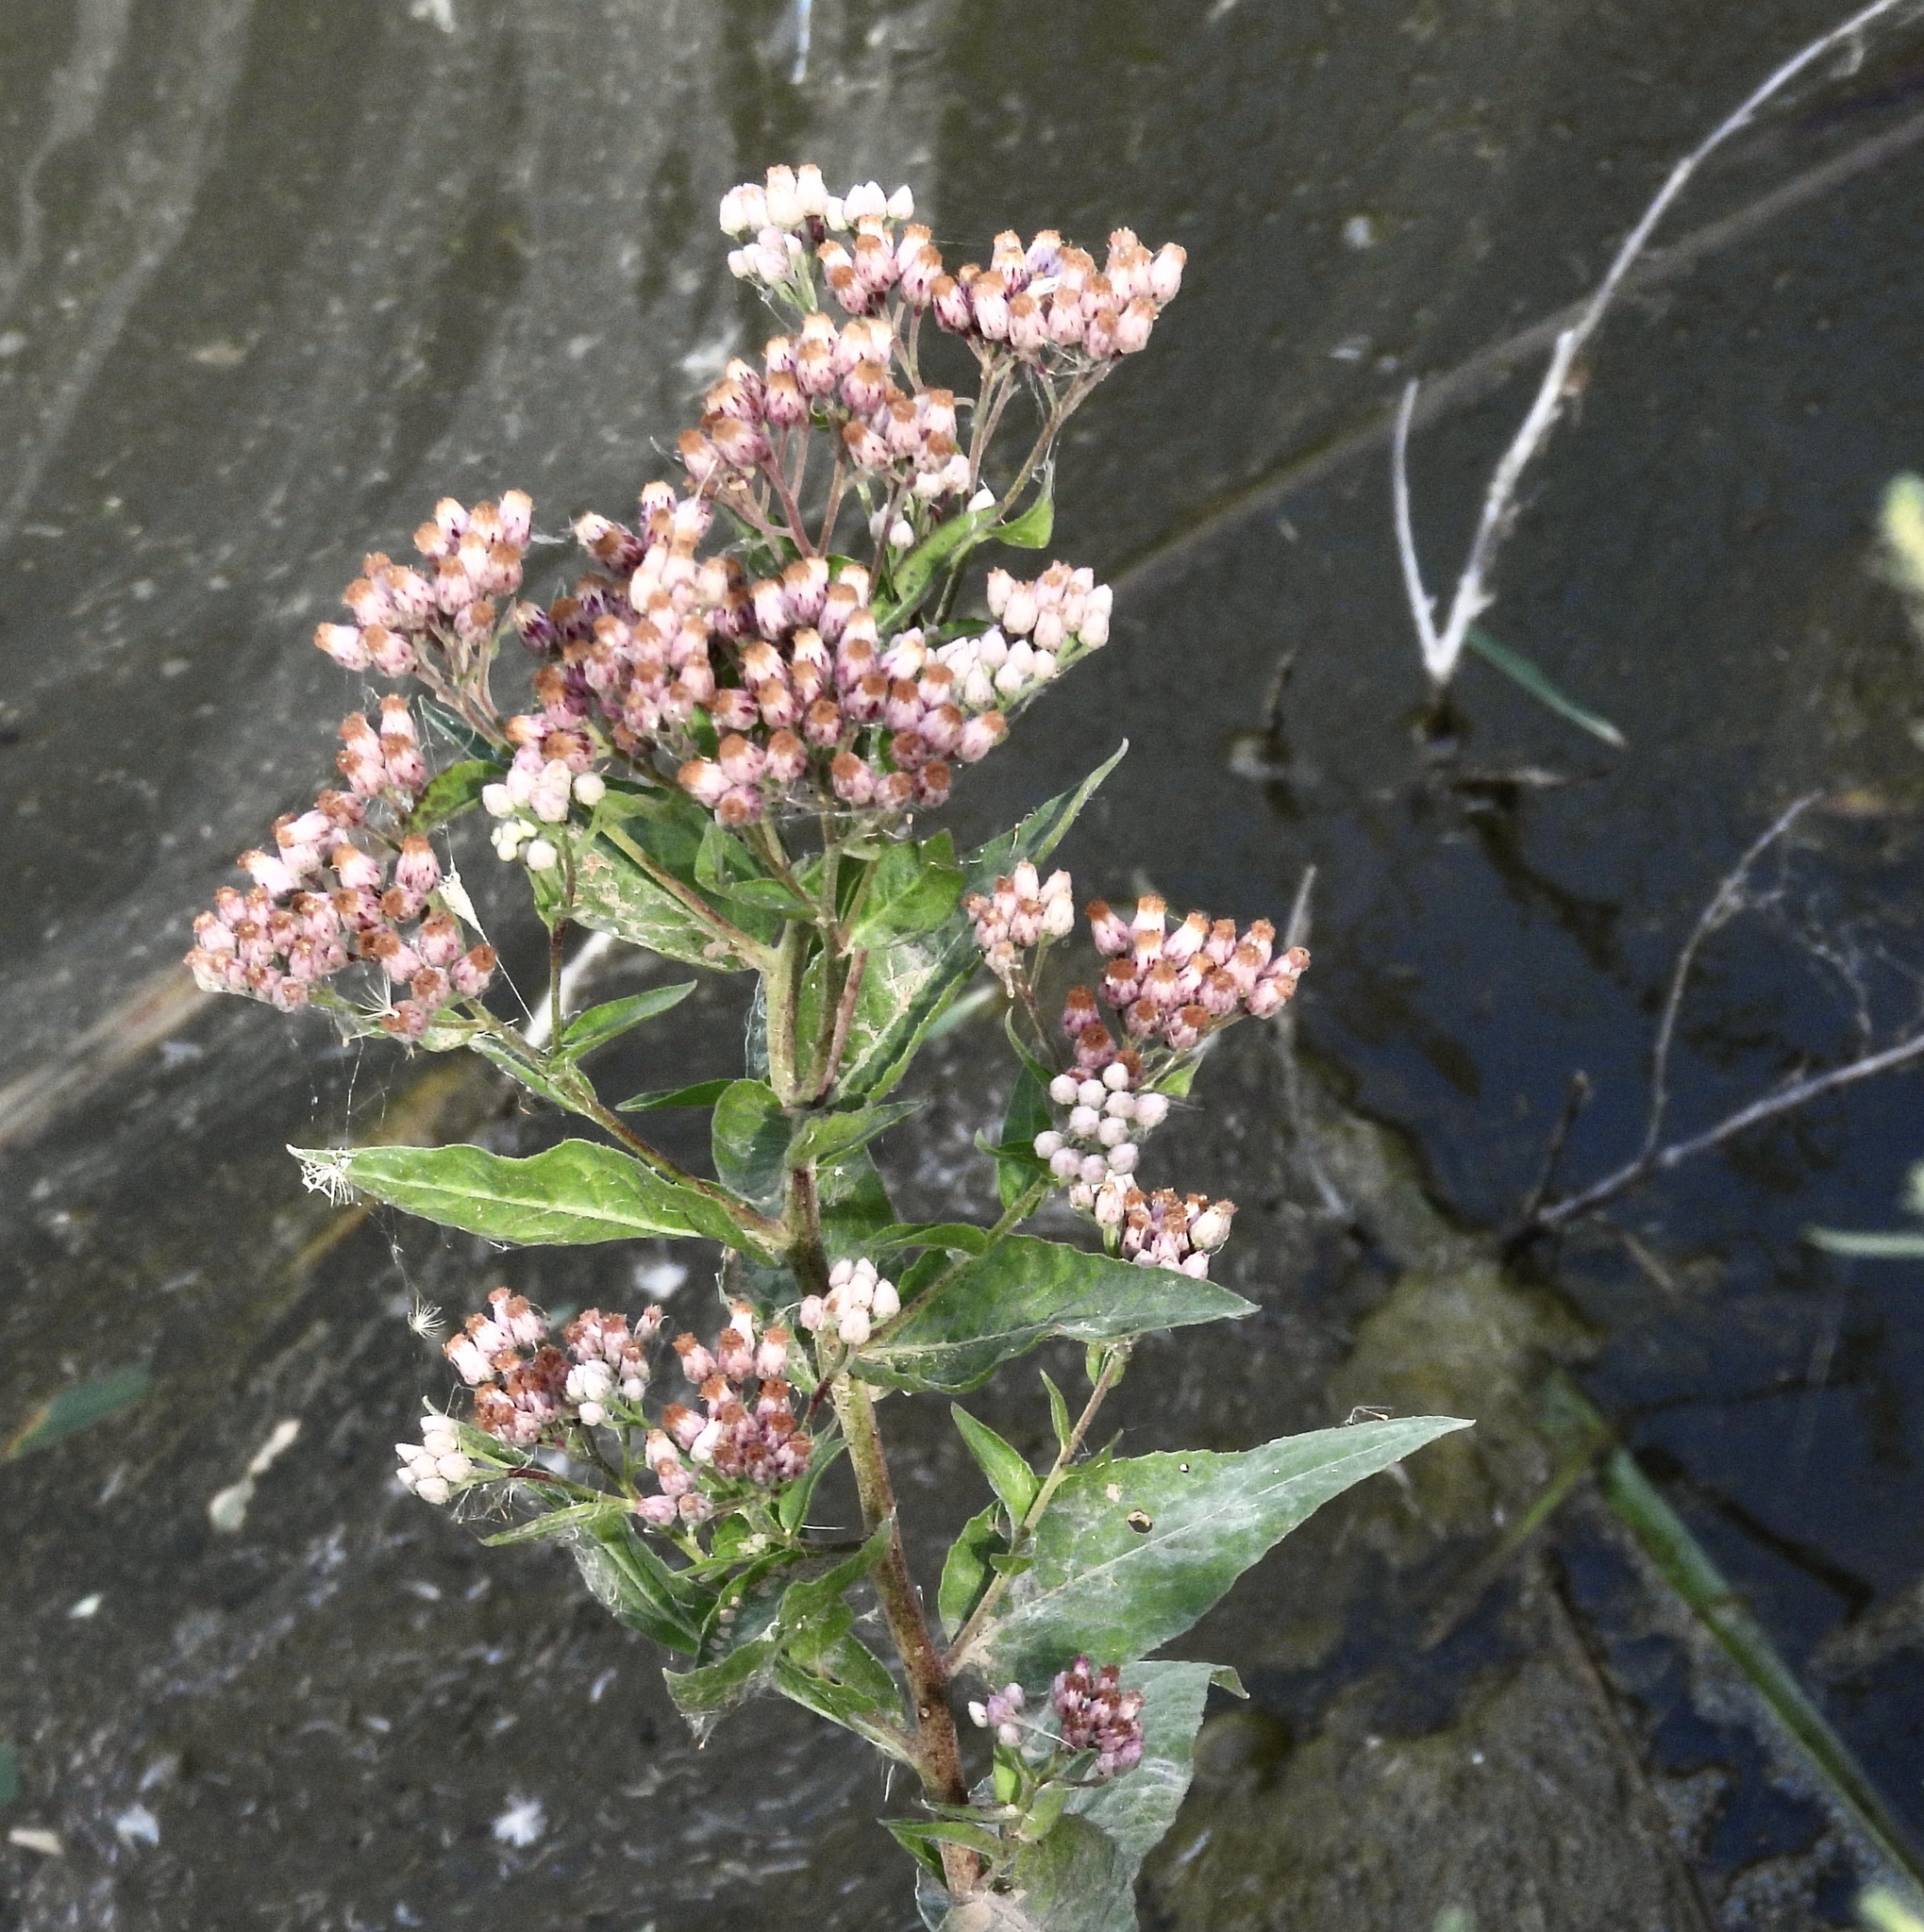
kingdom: Plantae
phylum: Tracheophyta
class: Magnoliopsida
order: Asterales
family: Asteraceae
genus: Pluchea
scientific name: Pluchea odorata
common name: Saltmarsh fleabane
